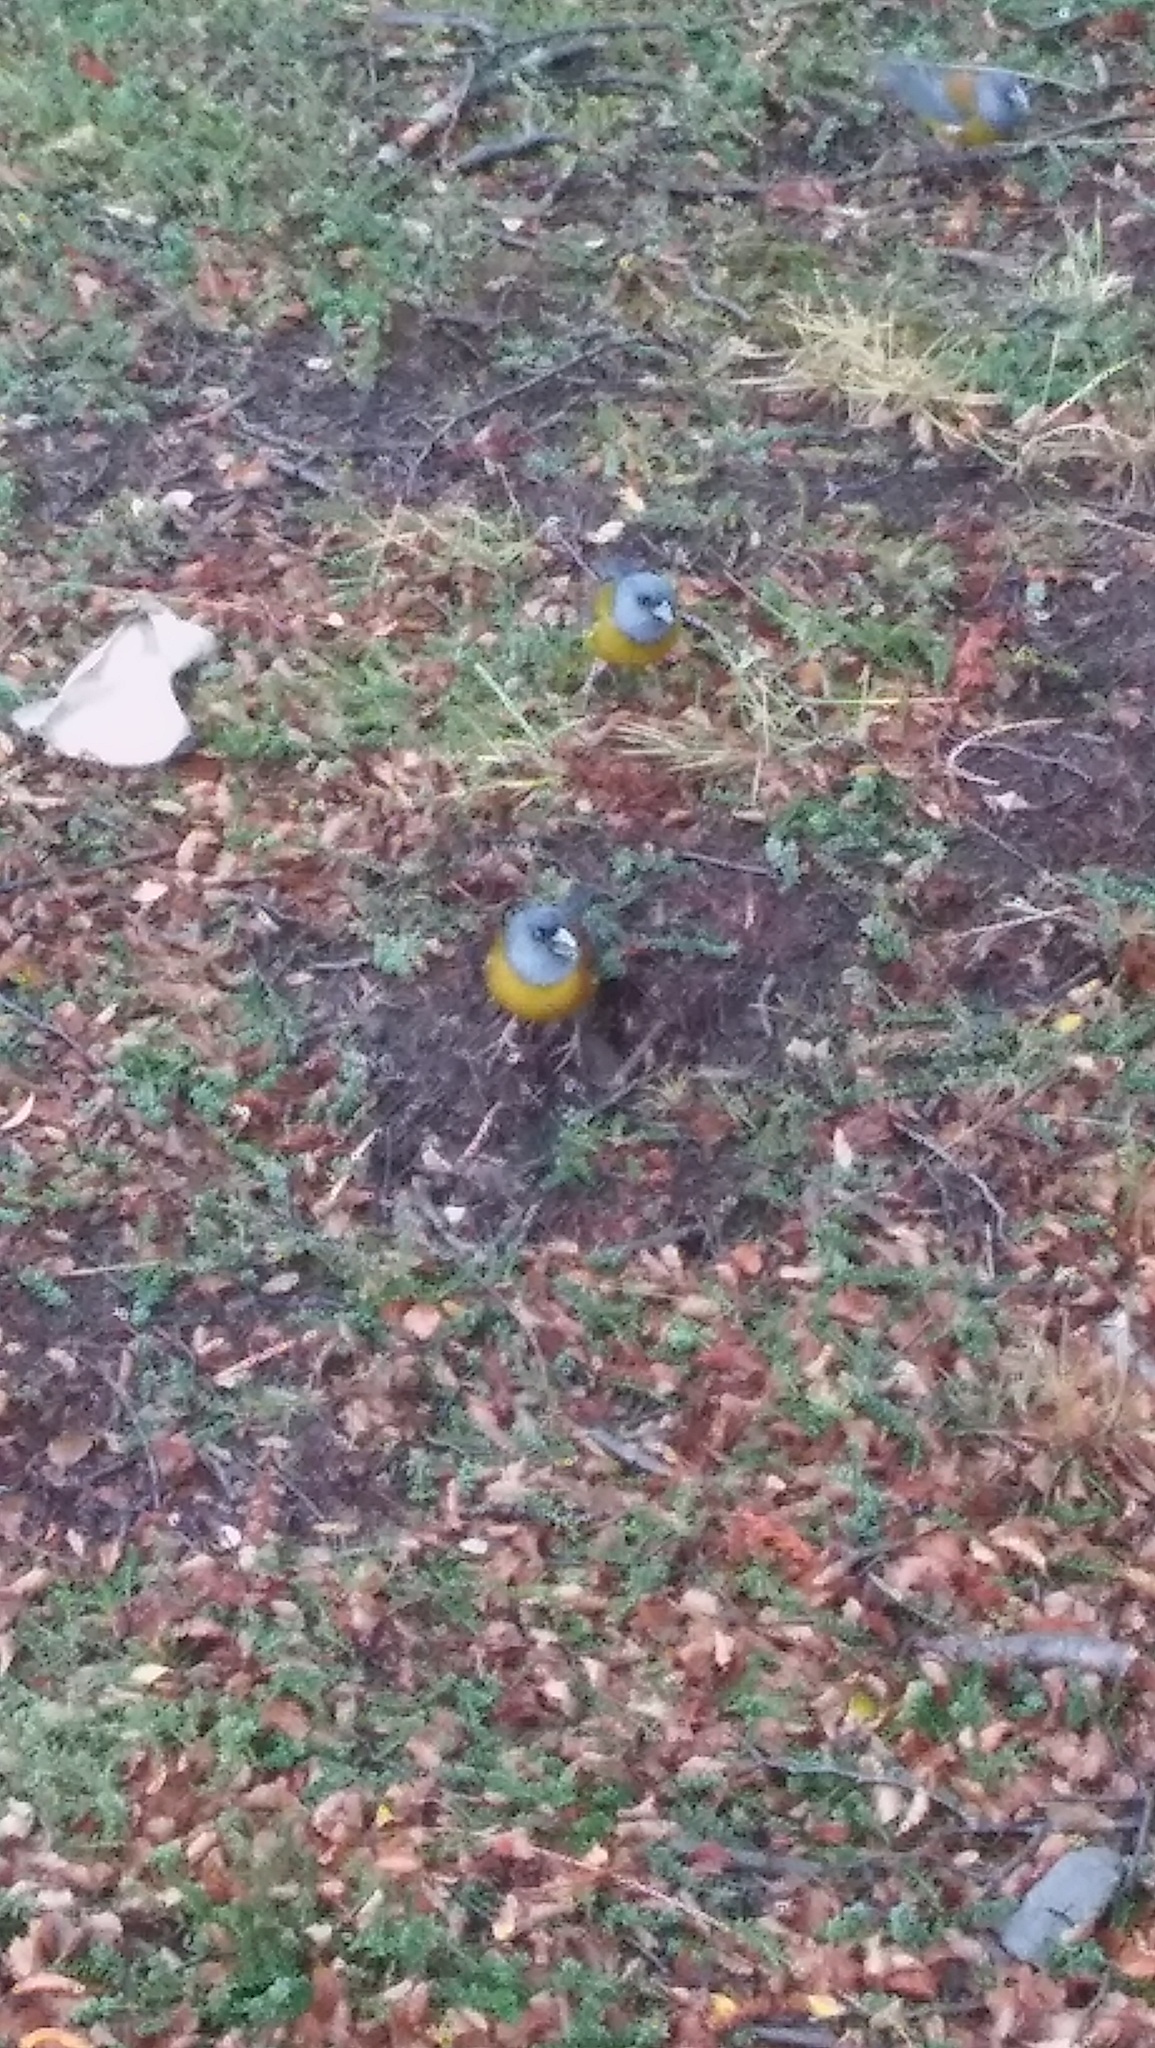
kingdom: Animalia
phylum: Chordata
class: Aves
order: Passeriformes
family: Thraupidae
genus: Phrygilus
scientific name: Phrygilus patagonicus
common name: Patagonian sierra finch
